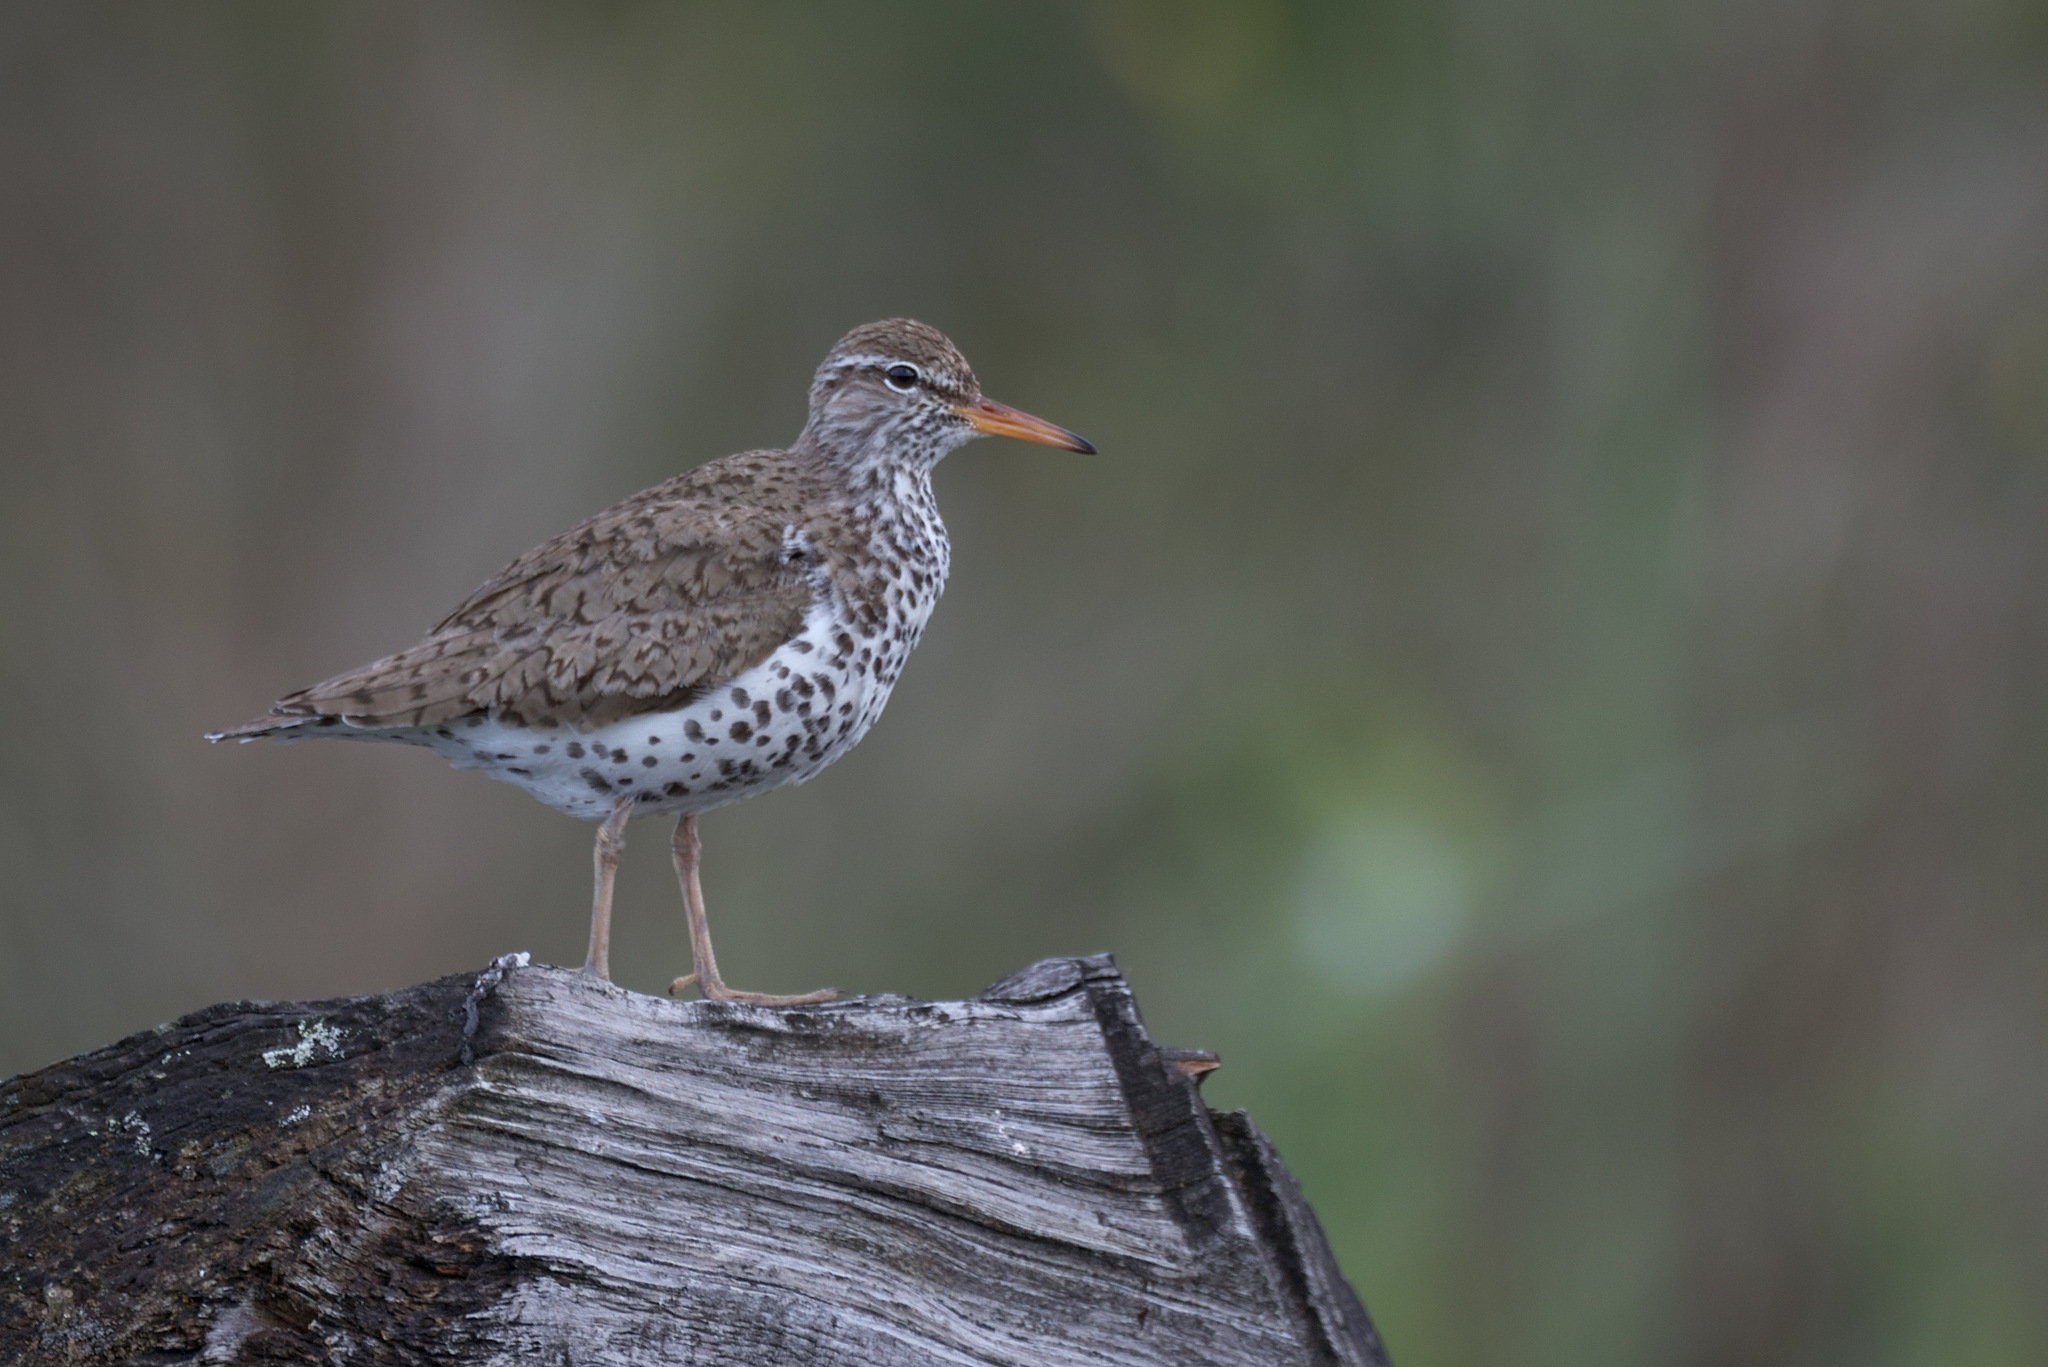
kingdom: Animalia
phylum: Chordata
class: Aves
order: Charadriiformes
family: Scolopacidae
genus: Actitis
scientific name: Actitis macularius
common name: Spotted sandpiper
